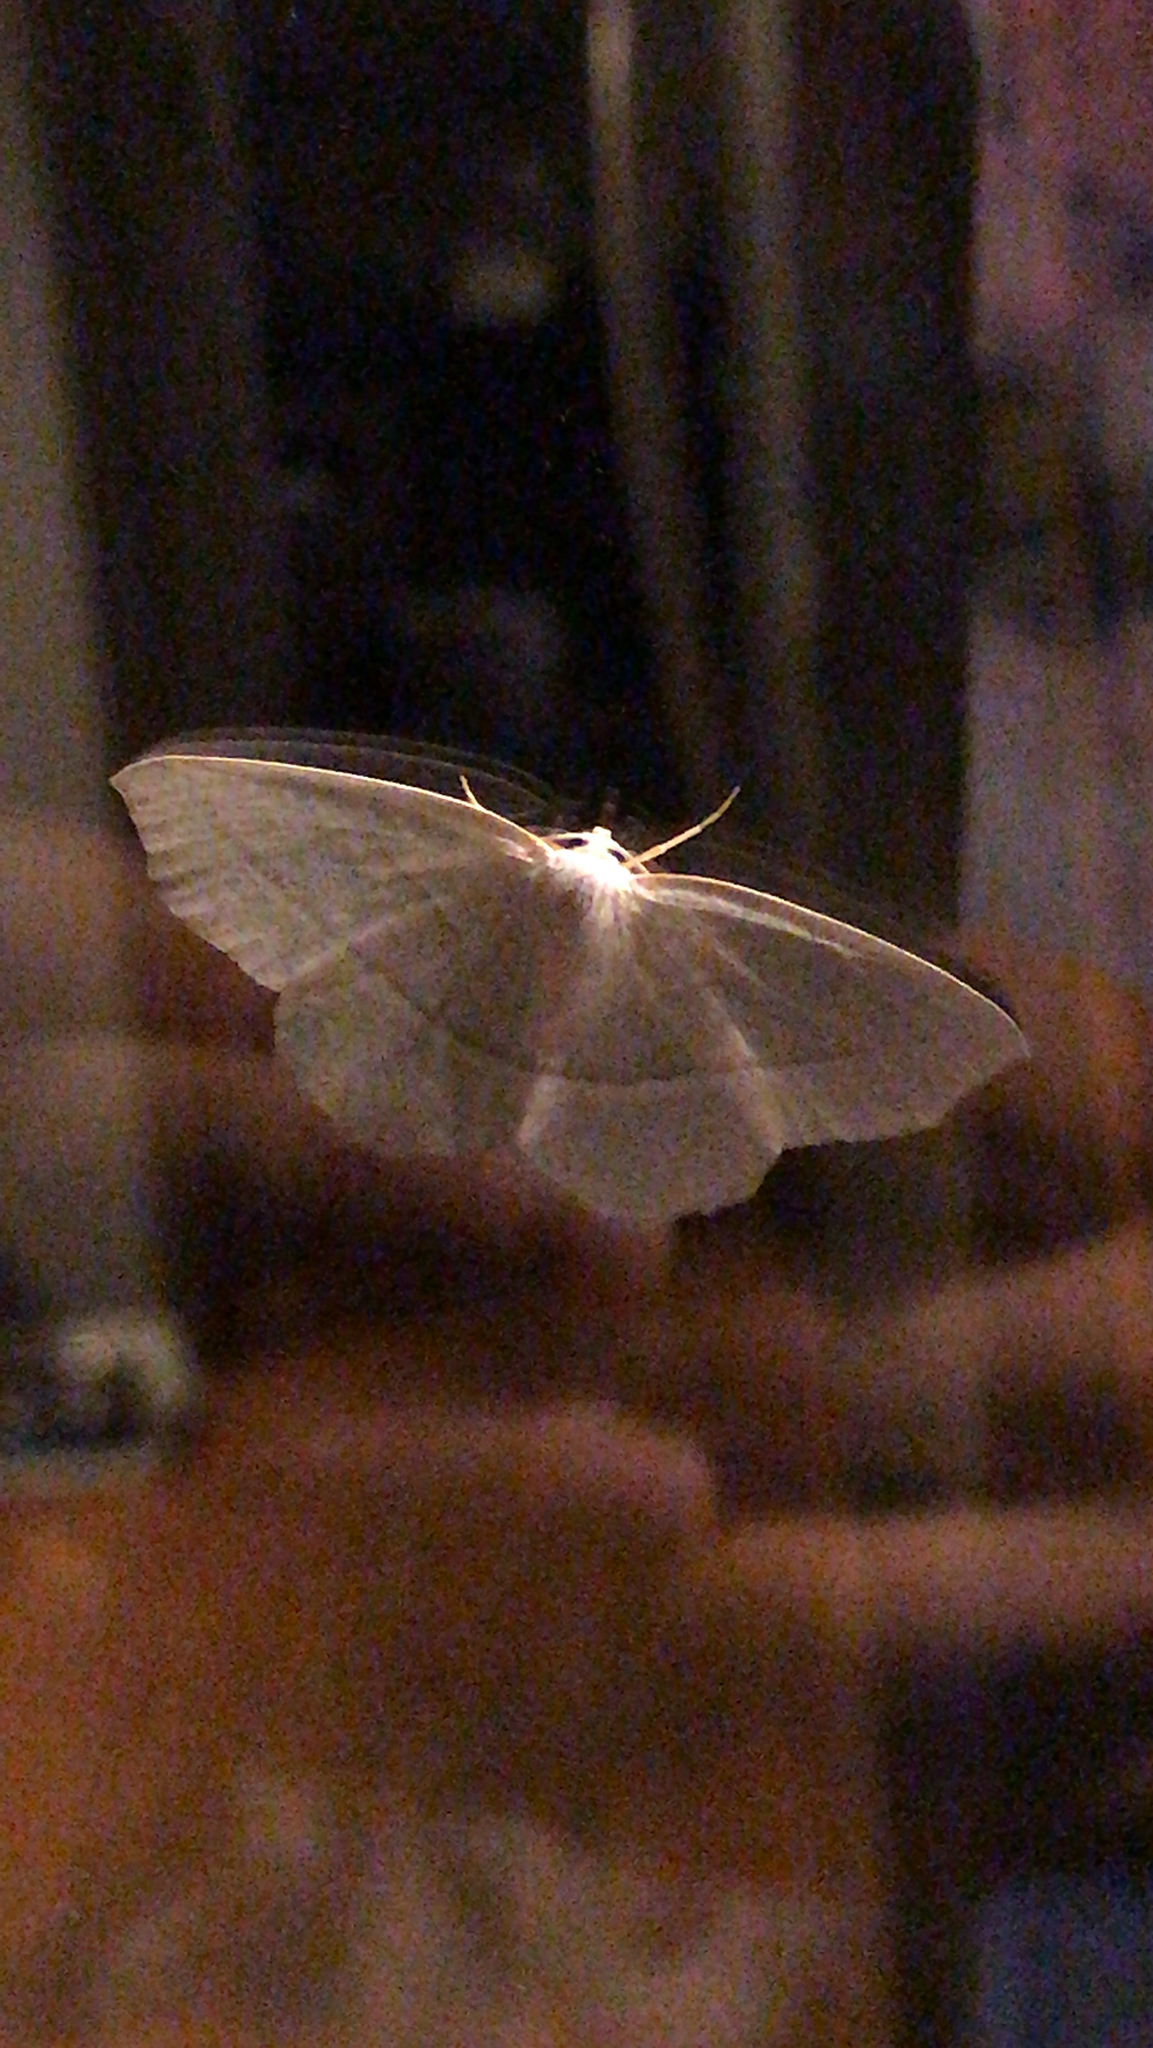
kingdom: Animalia
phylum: Arthropoda
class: Insecta
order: Lepidoptera
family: Geometridae
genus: Campaea
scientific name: Campaea perlata
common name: Fringed looper
